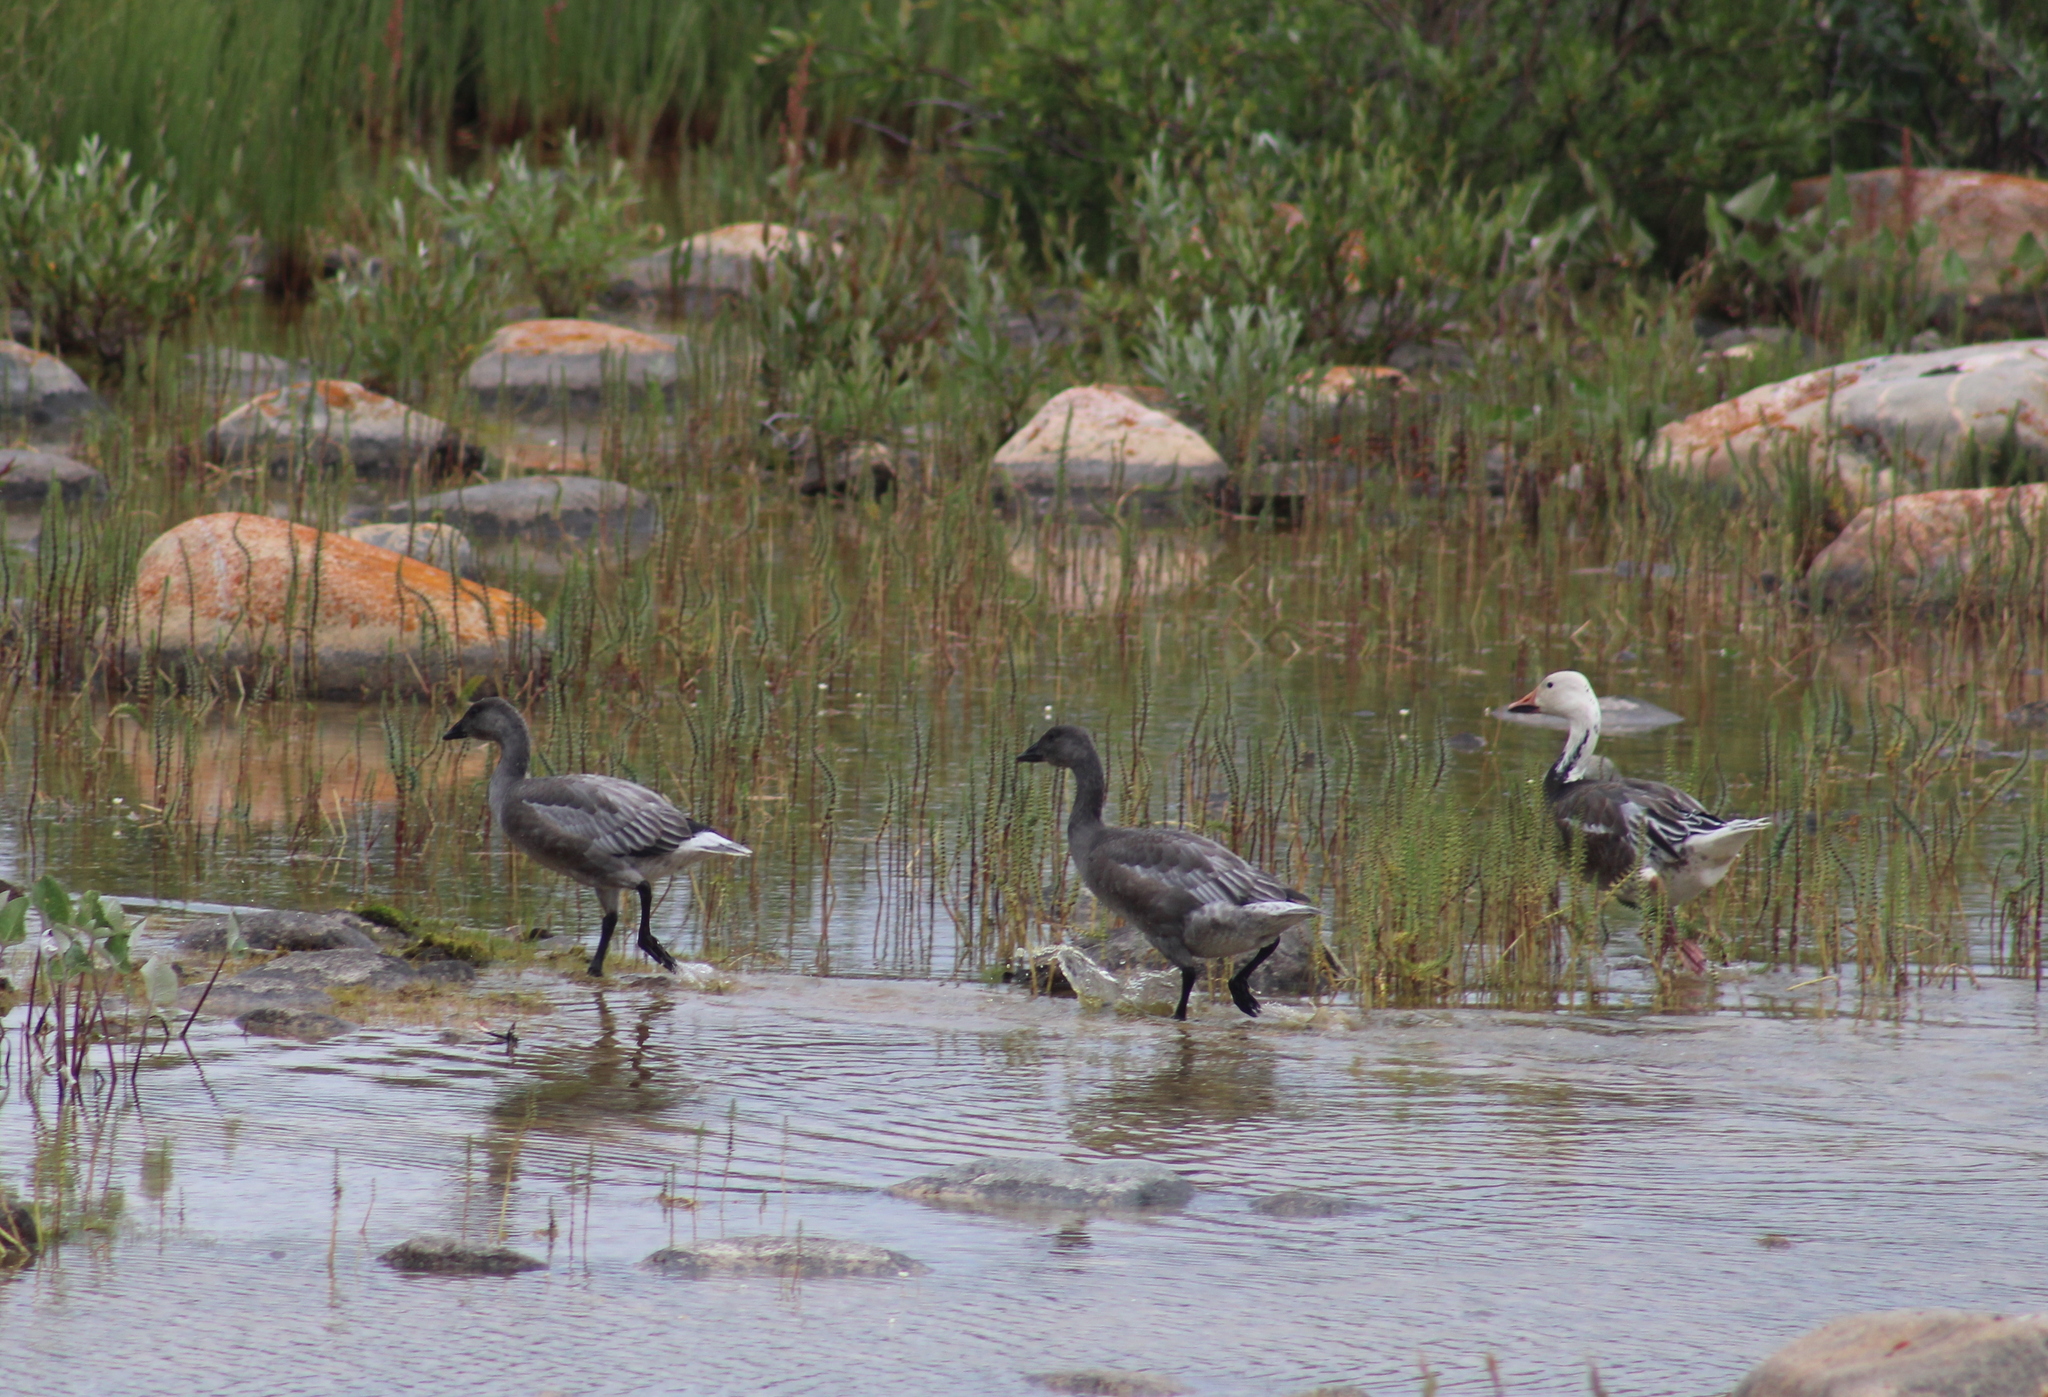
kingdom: Animalia
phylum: Chordata
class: Aves
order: Anseriformes
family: Anatidae
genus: Anser
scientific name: Anser caerulescens
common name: Snow goose
